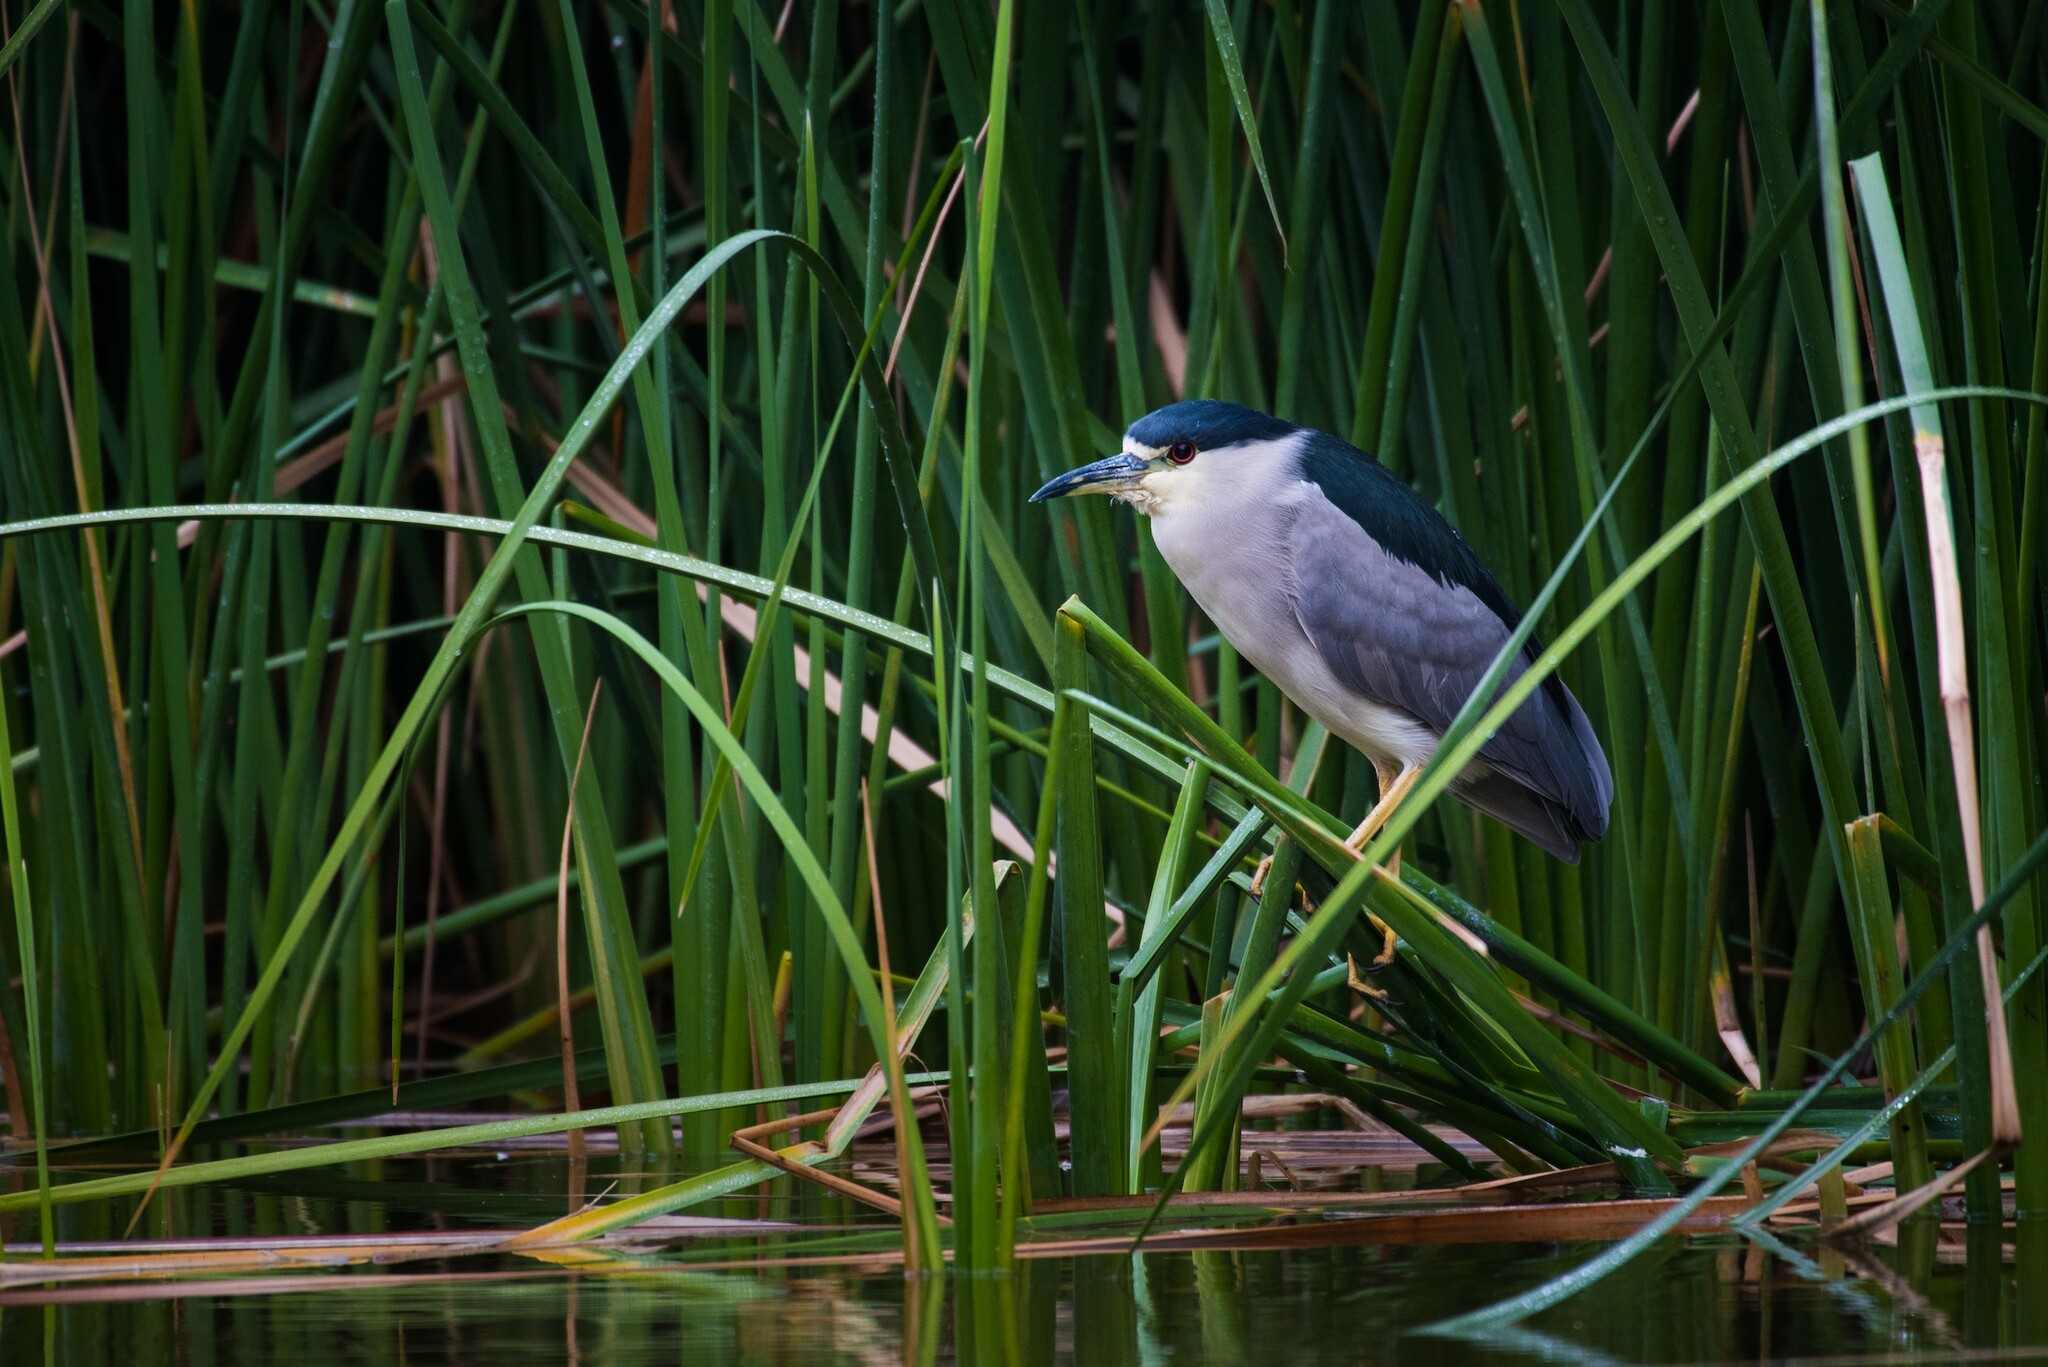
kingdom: Animalia
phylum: Chordata
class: Aves
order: Pelecaniformes
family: Ardeidae
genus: Nycticorax
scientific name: Nycticorax nycticorax
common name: Black-crowned night heron
